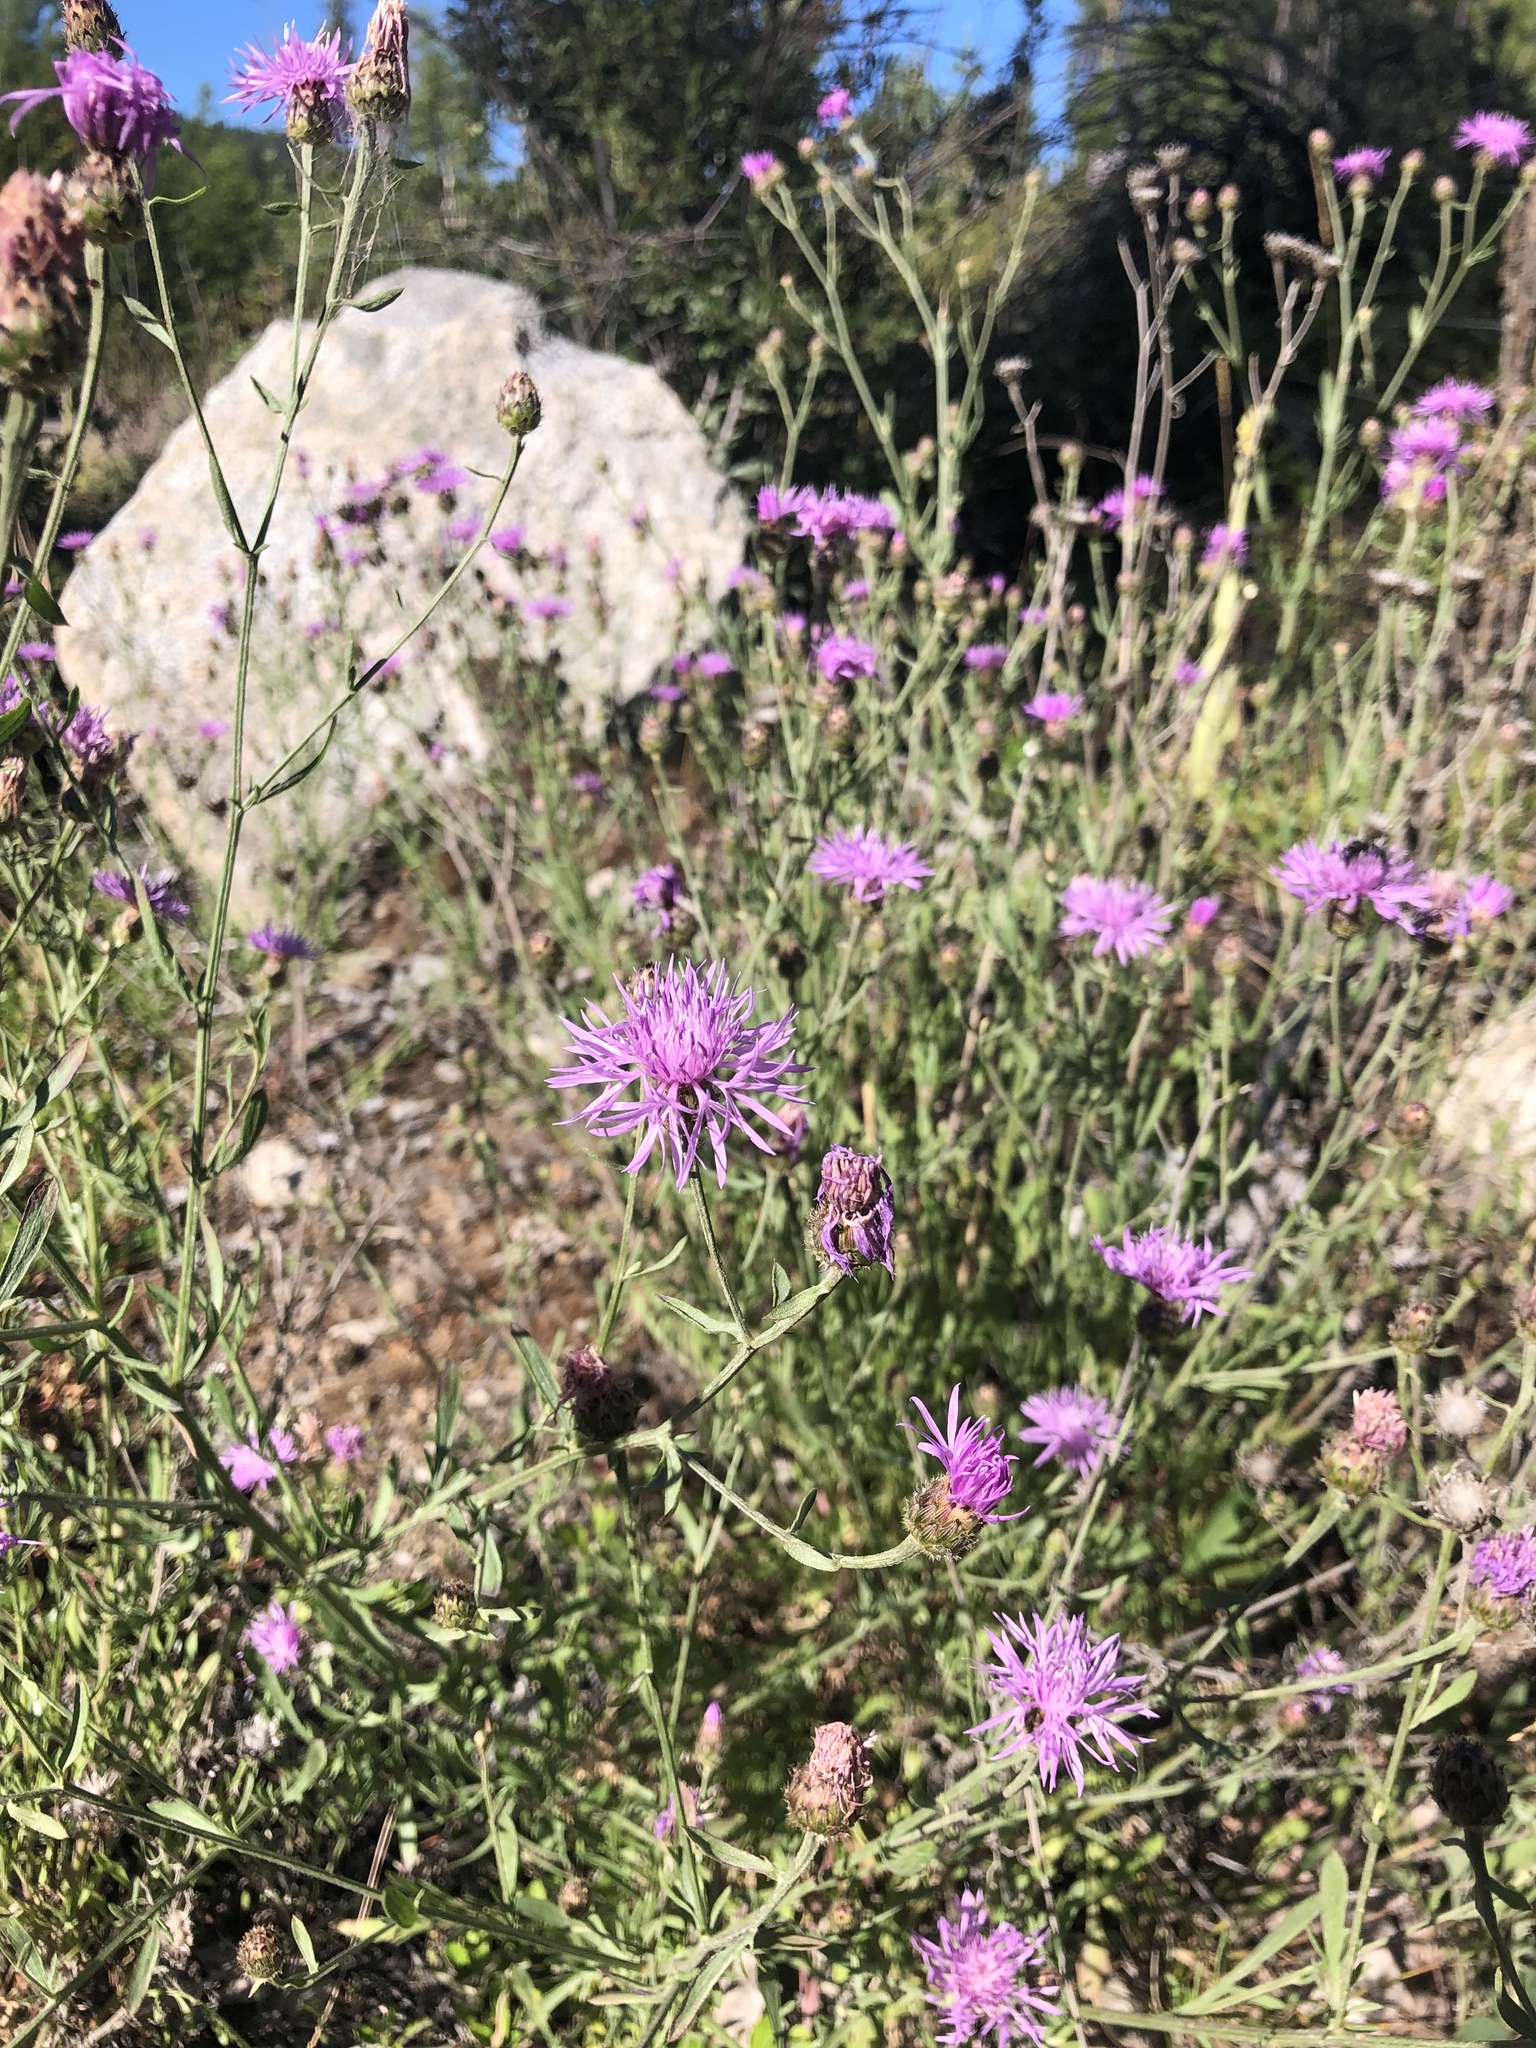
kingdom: Plantae
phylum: Tracheophyta
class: Magnoliopsida
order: Asterales
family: Asteraceae
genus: Centaurea
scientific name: Centaurea stoebe
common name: Spotted knapweed
